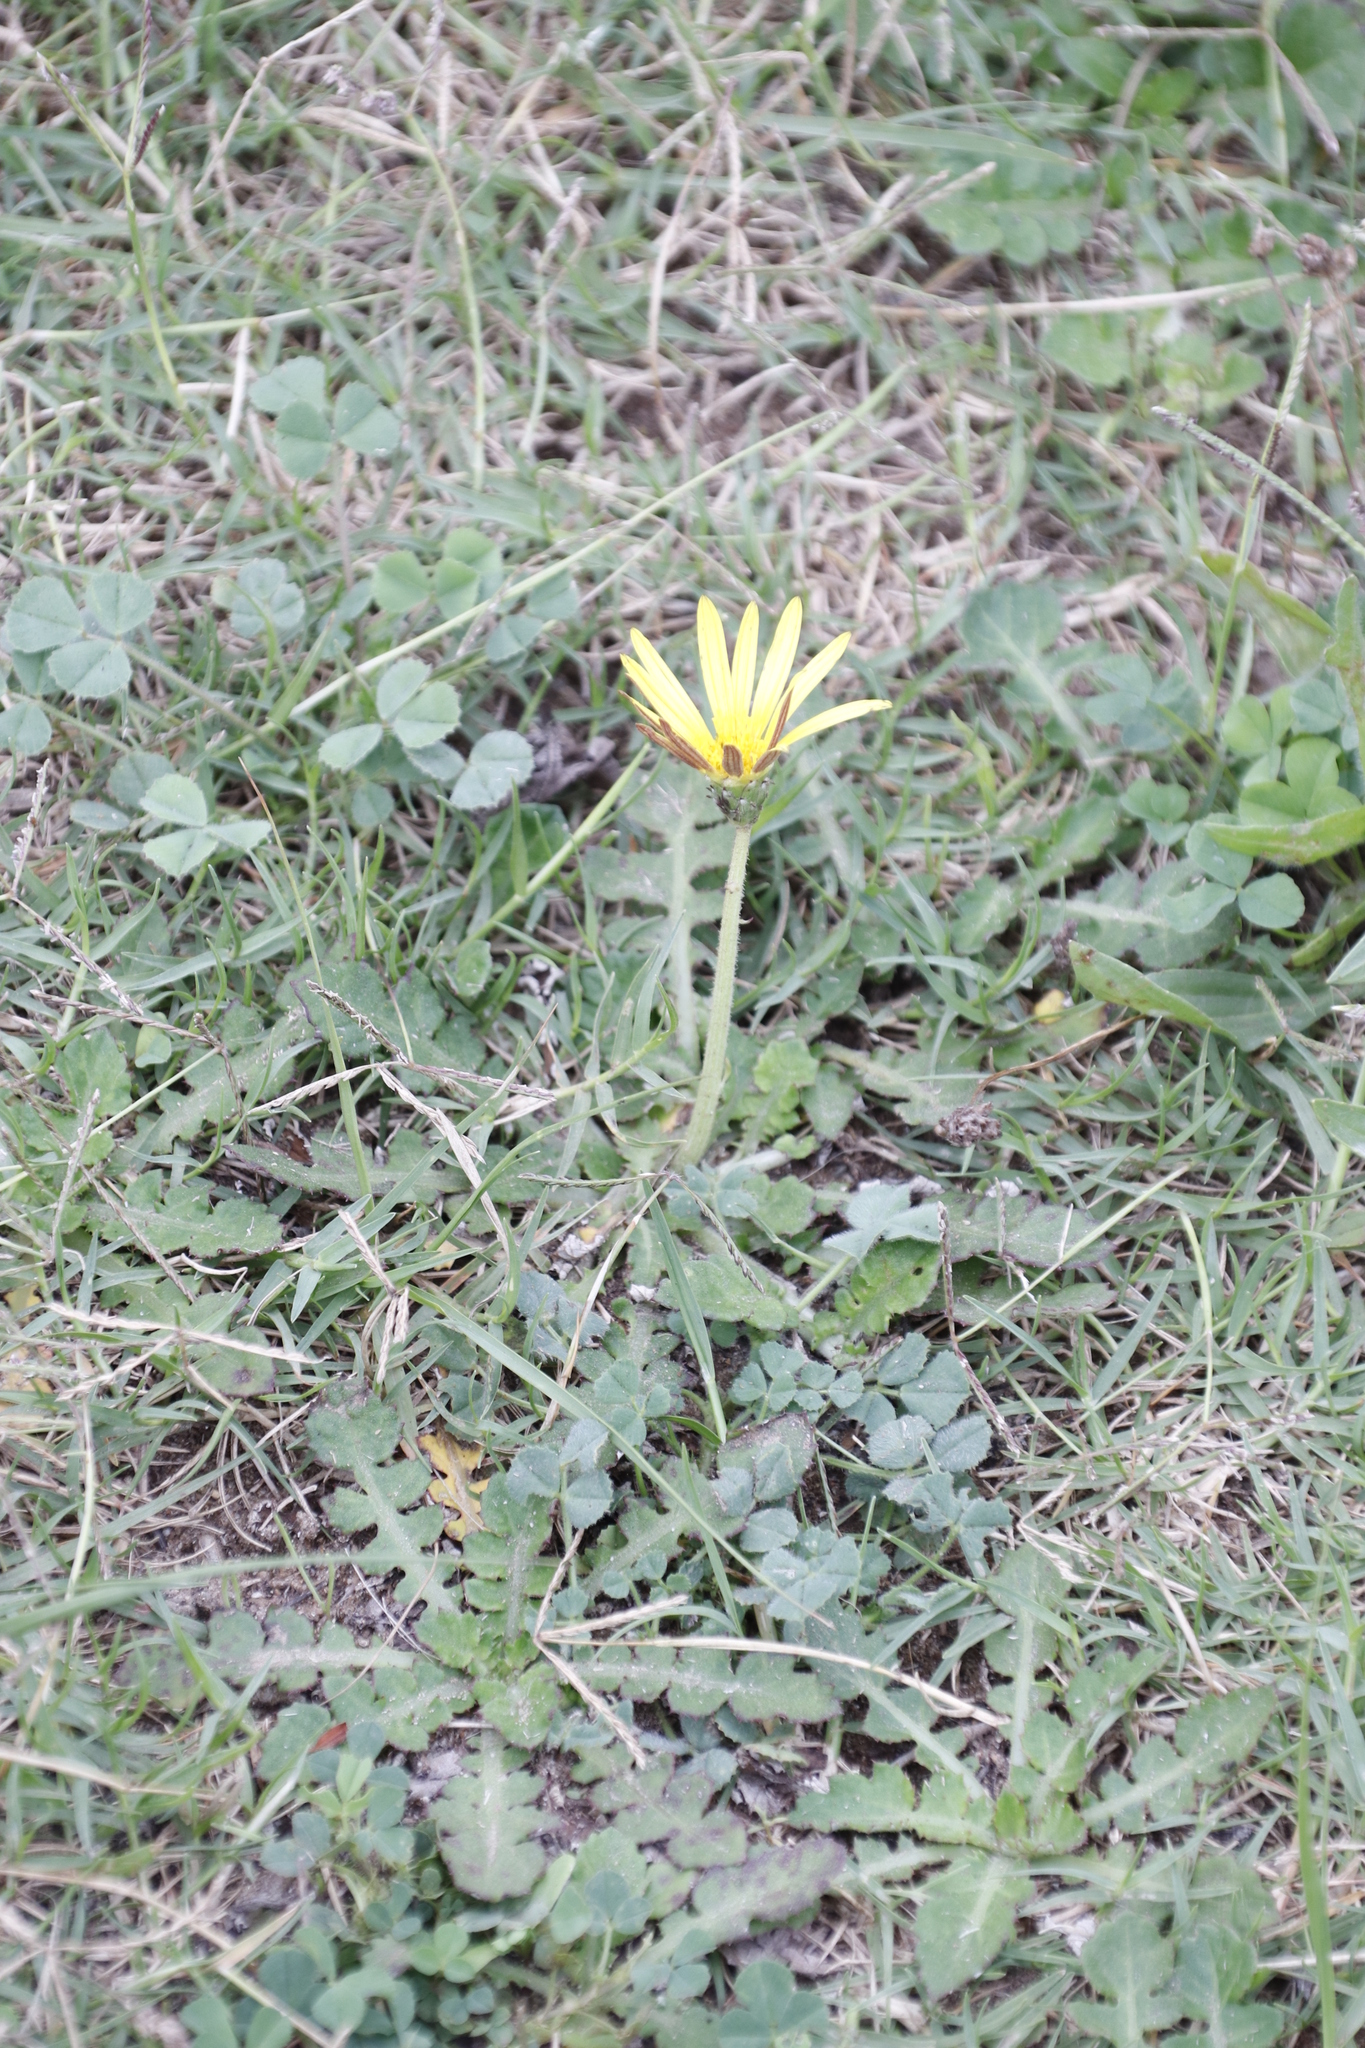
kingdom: Plantae
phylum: Tracheophyta
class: Magnoliopsida
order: Asterales
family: Asteraceae
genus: Arctotheca
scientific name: Arctotheca prostrata
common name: Capeweed
